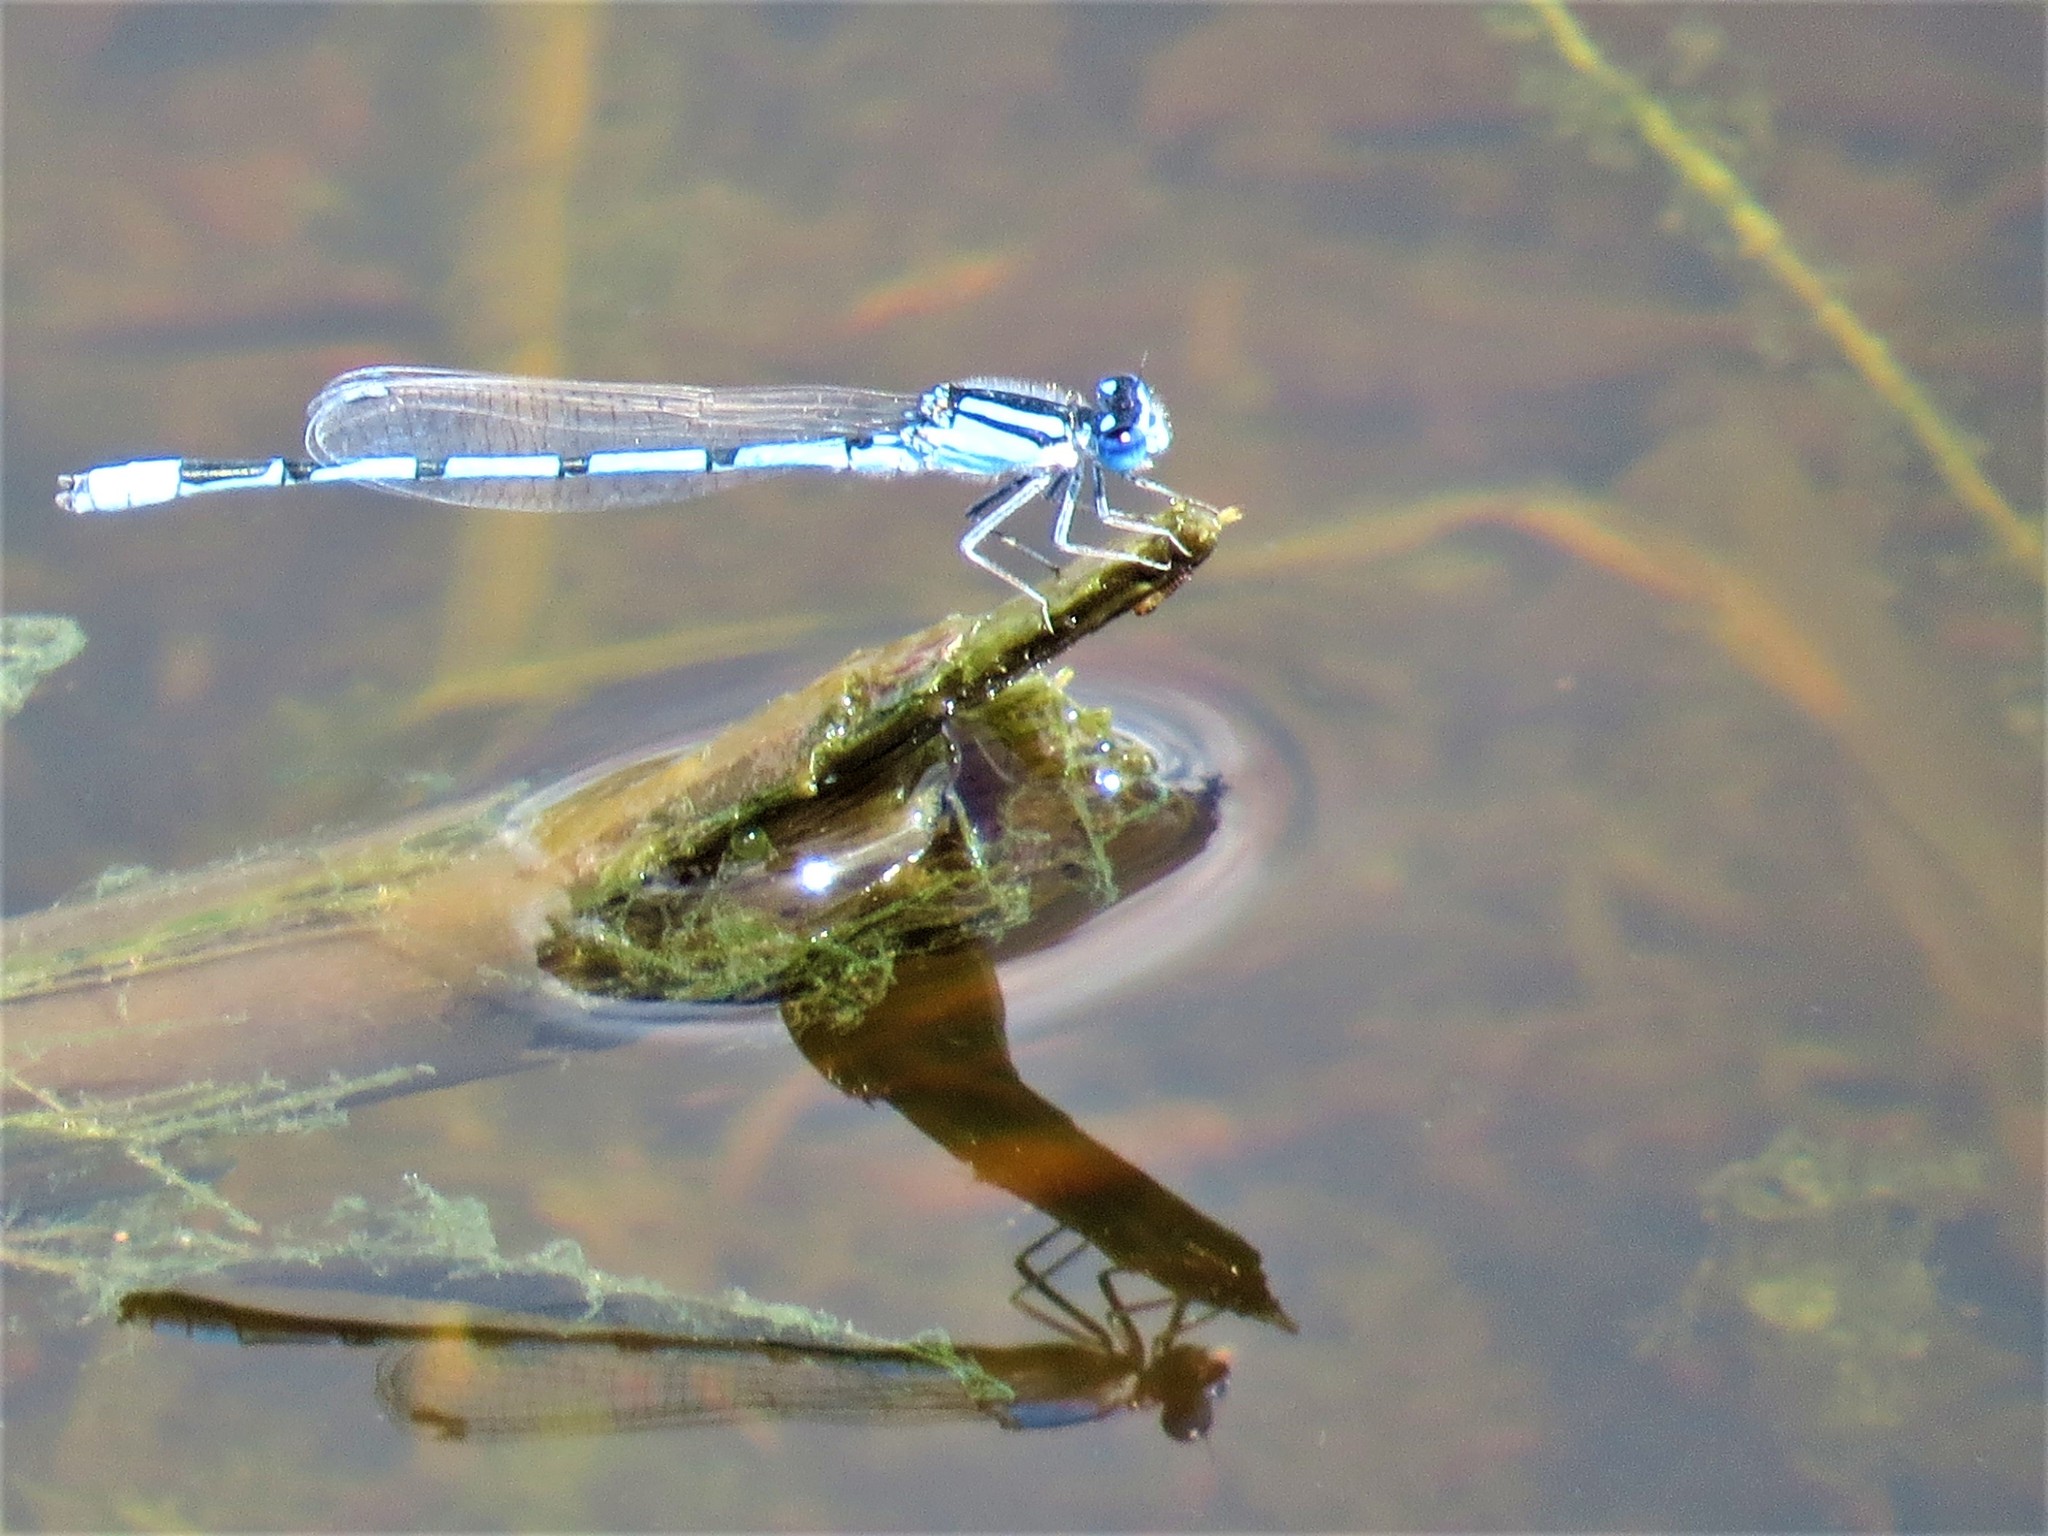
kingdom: Animalia
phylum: Arthropoda
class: Insecta
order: Odonata
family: Coenagrionidae
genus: Enallagma
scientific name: Enallagma civile
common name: Damselfly
